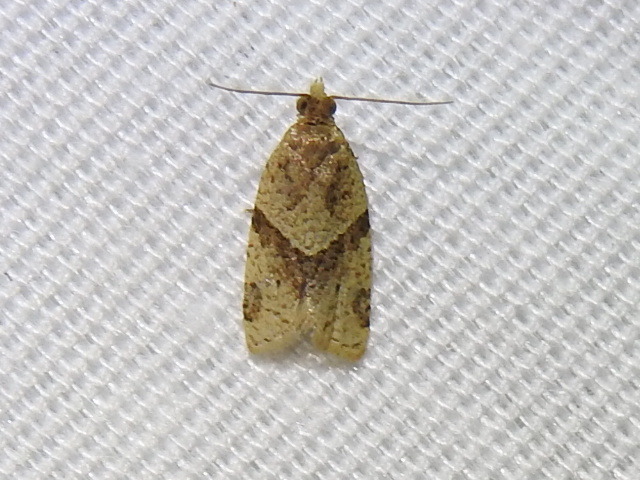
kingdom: Animalia
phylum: Arthropoda
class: Insecta
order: Lepidoptera
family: Tortricidae
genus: Clepsis
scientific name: Clepsis peritana
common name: Garden tortrix
